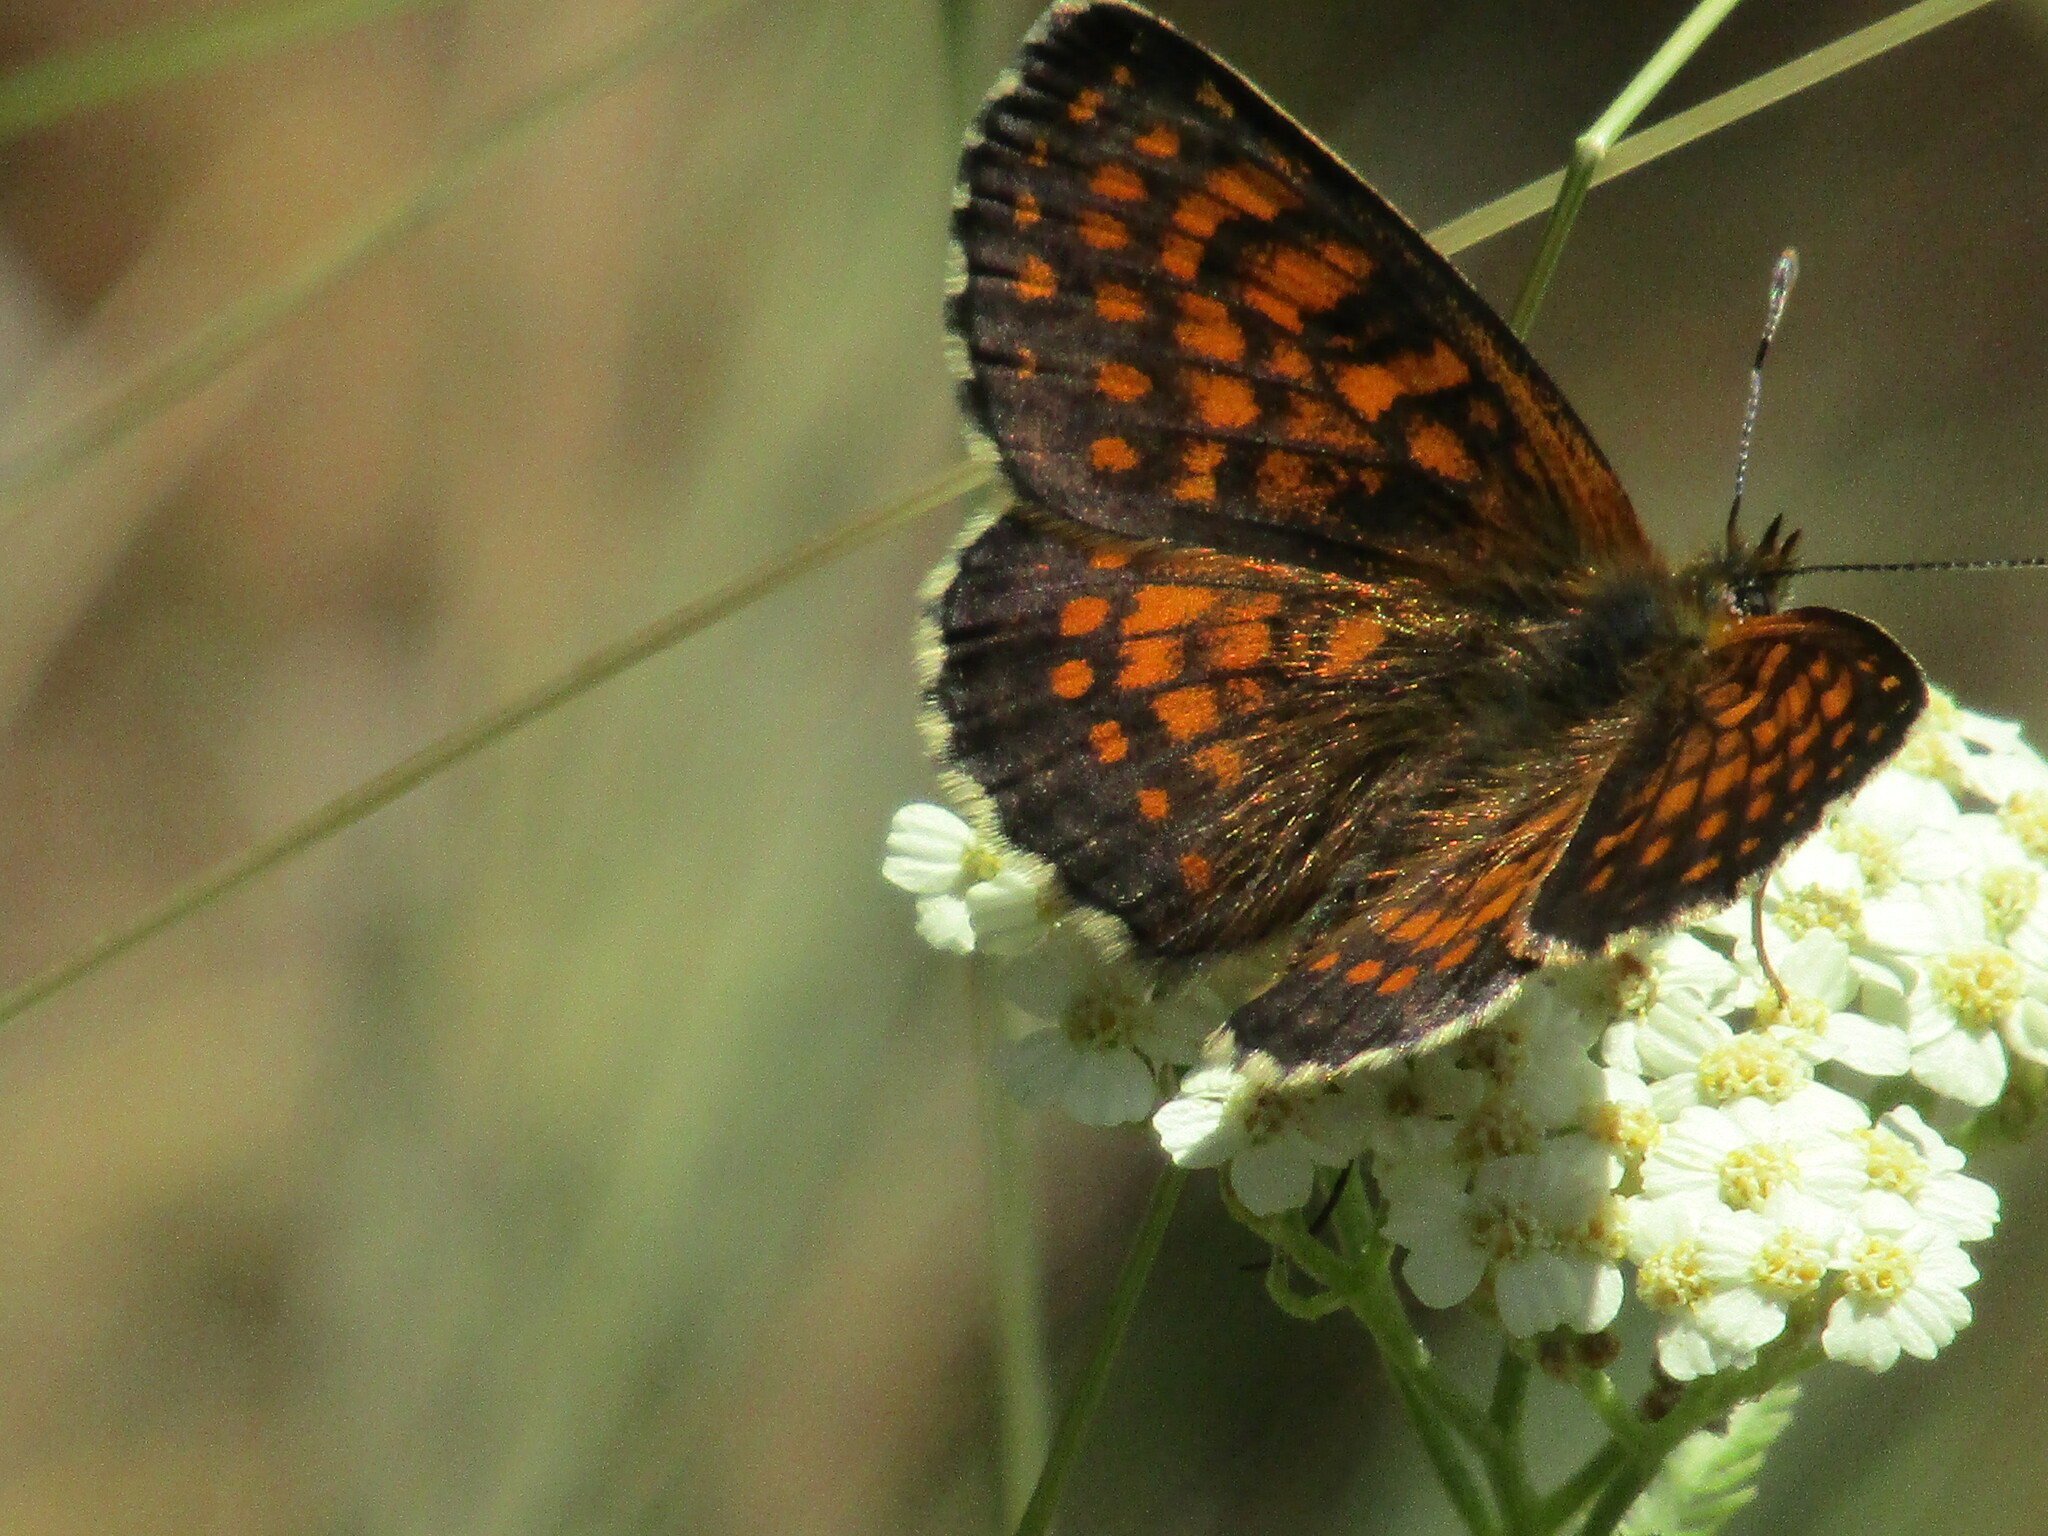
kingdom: Animalia
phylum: Arthropoda
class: Insecta
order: Lepidoptera
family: Nymphalidae
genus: Melitaea
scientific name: Melitaea
